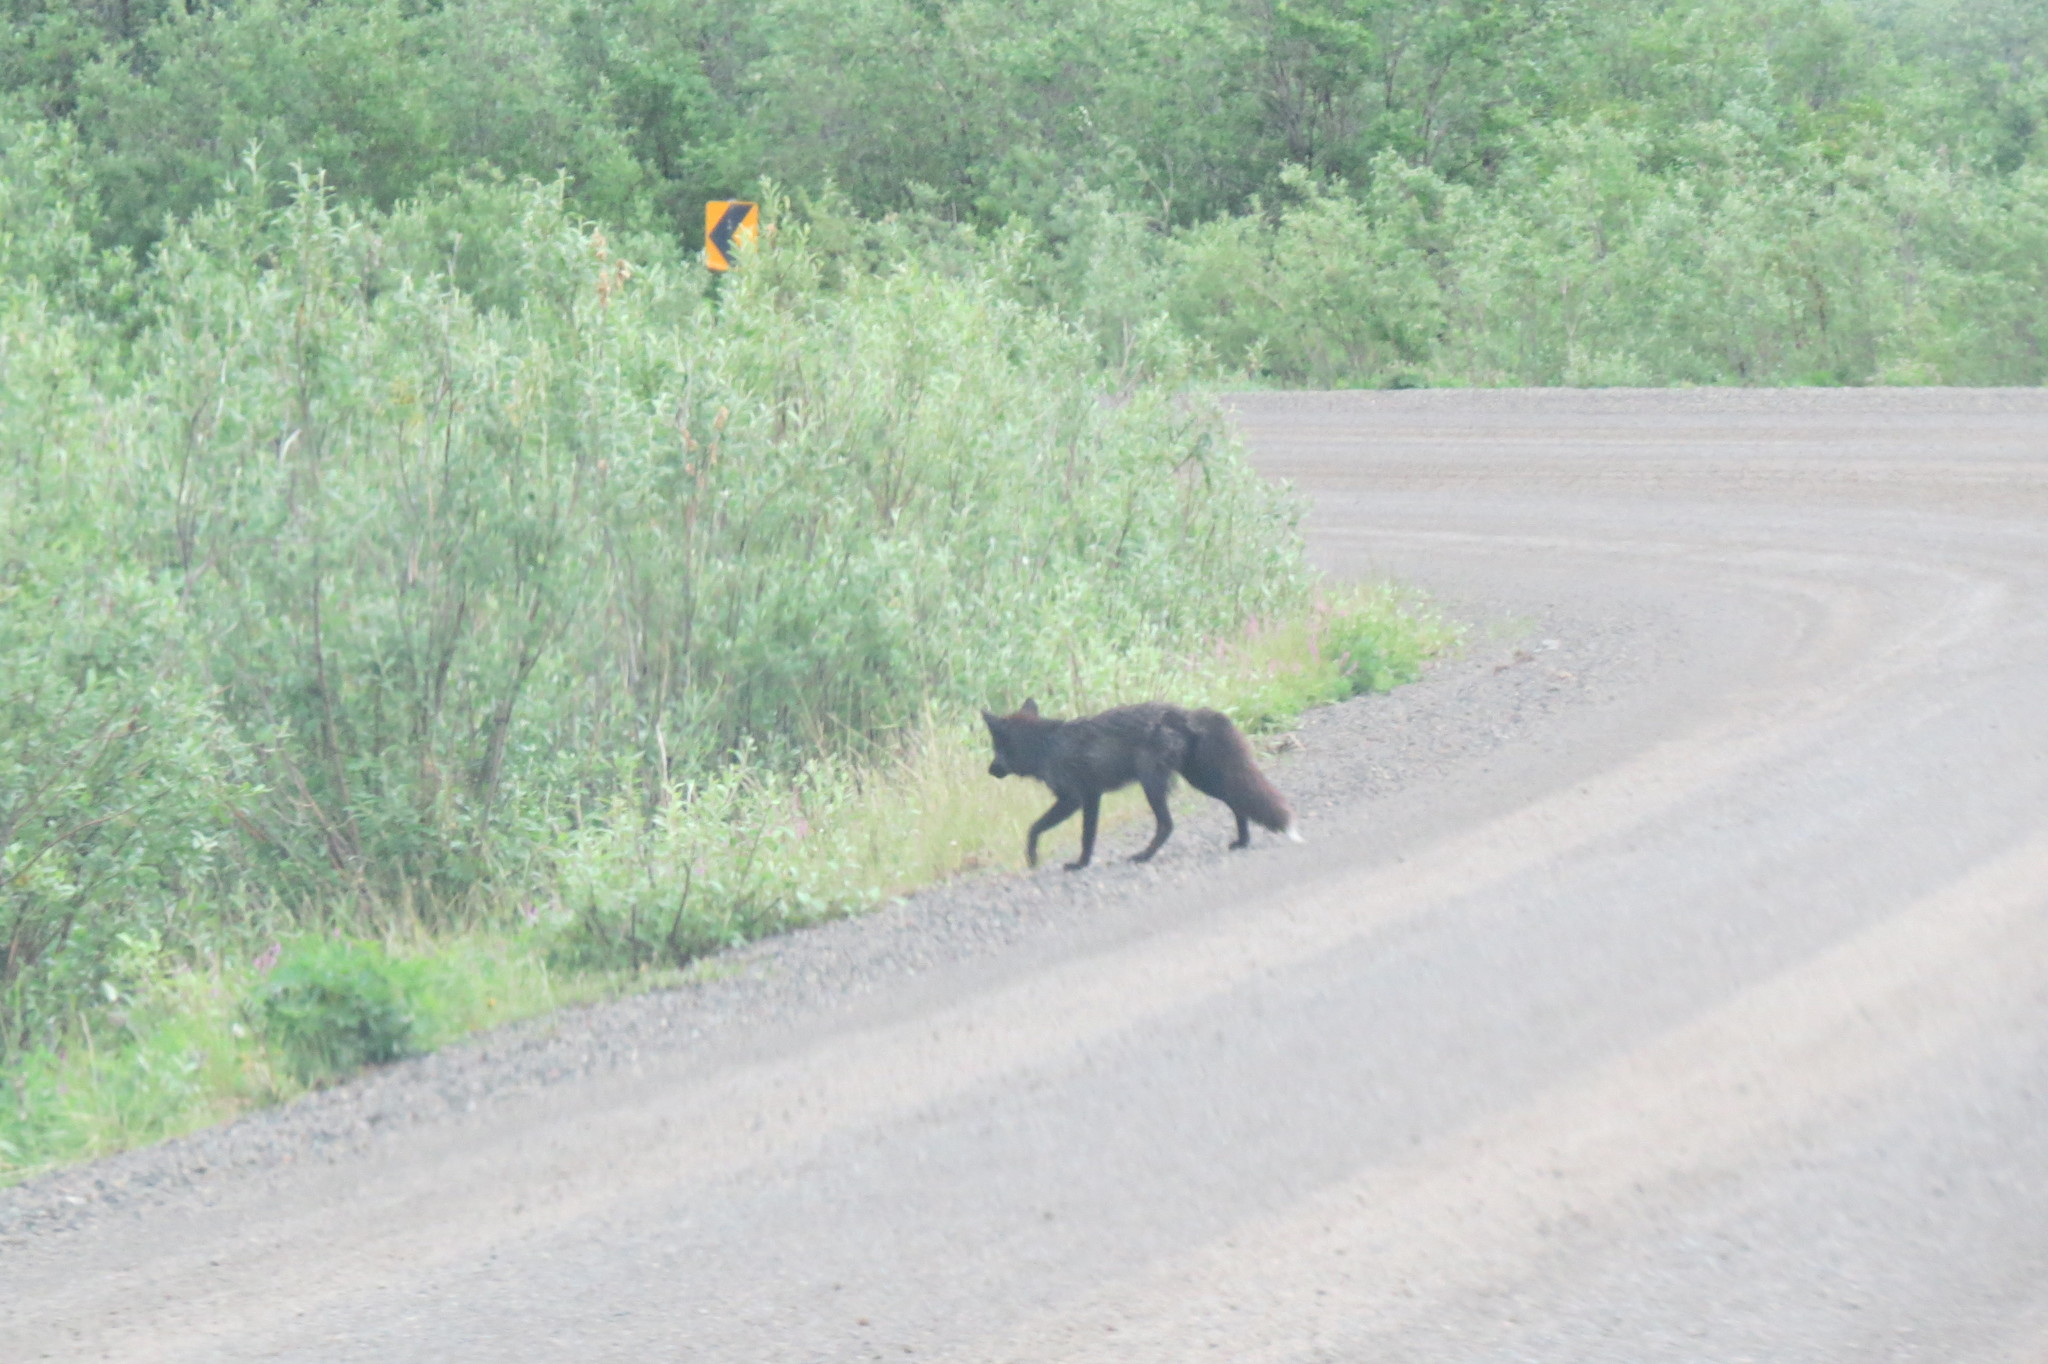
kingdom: Animalia
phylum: Chordata
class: Mammalia
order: Carnivora
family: Canidae
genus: Vulpes
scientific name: Vulpes vulpes
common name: Red fox
